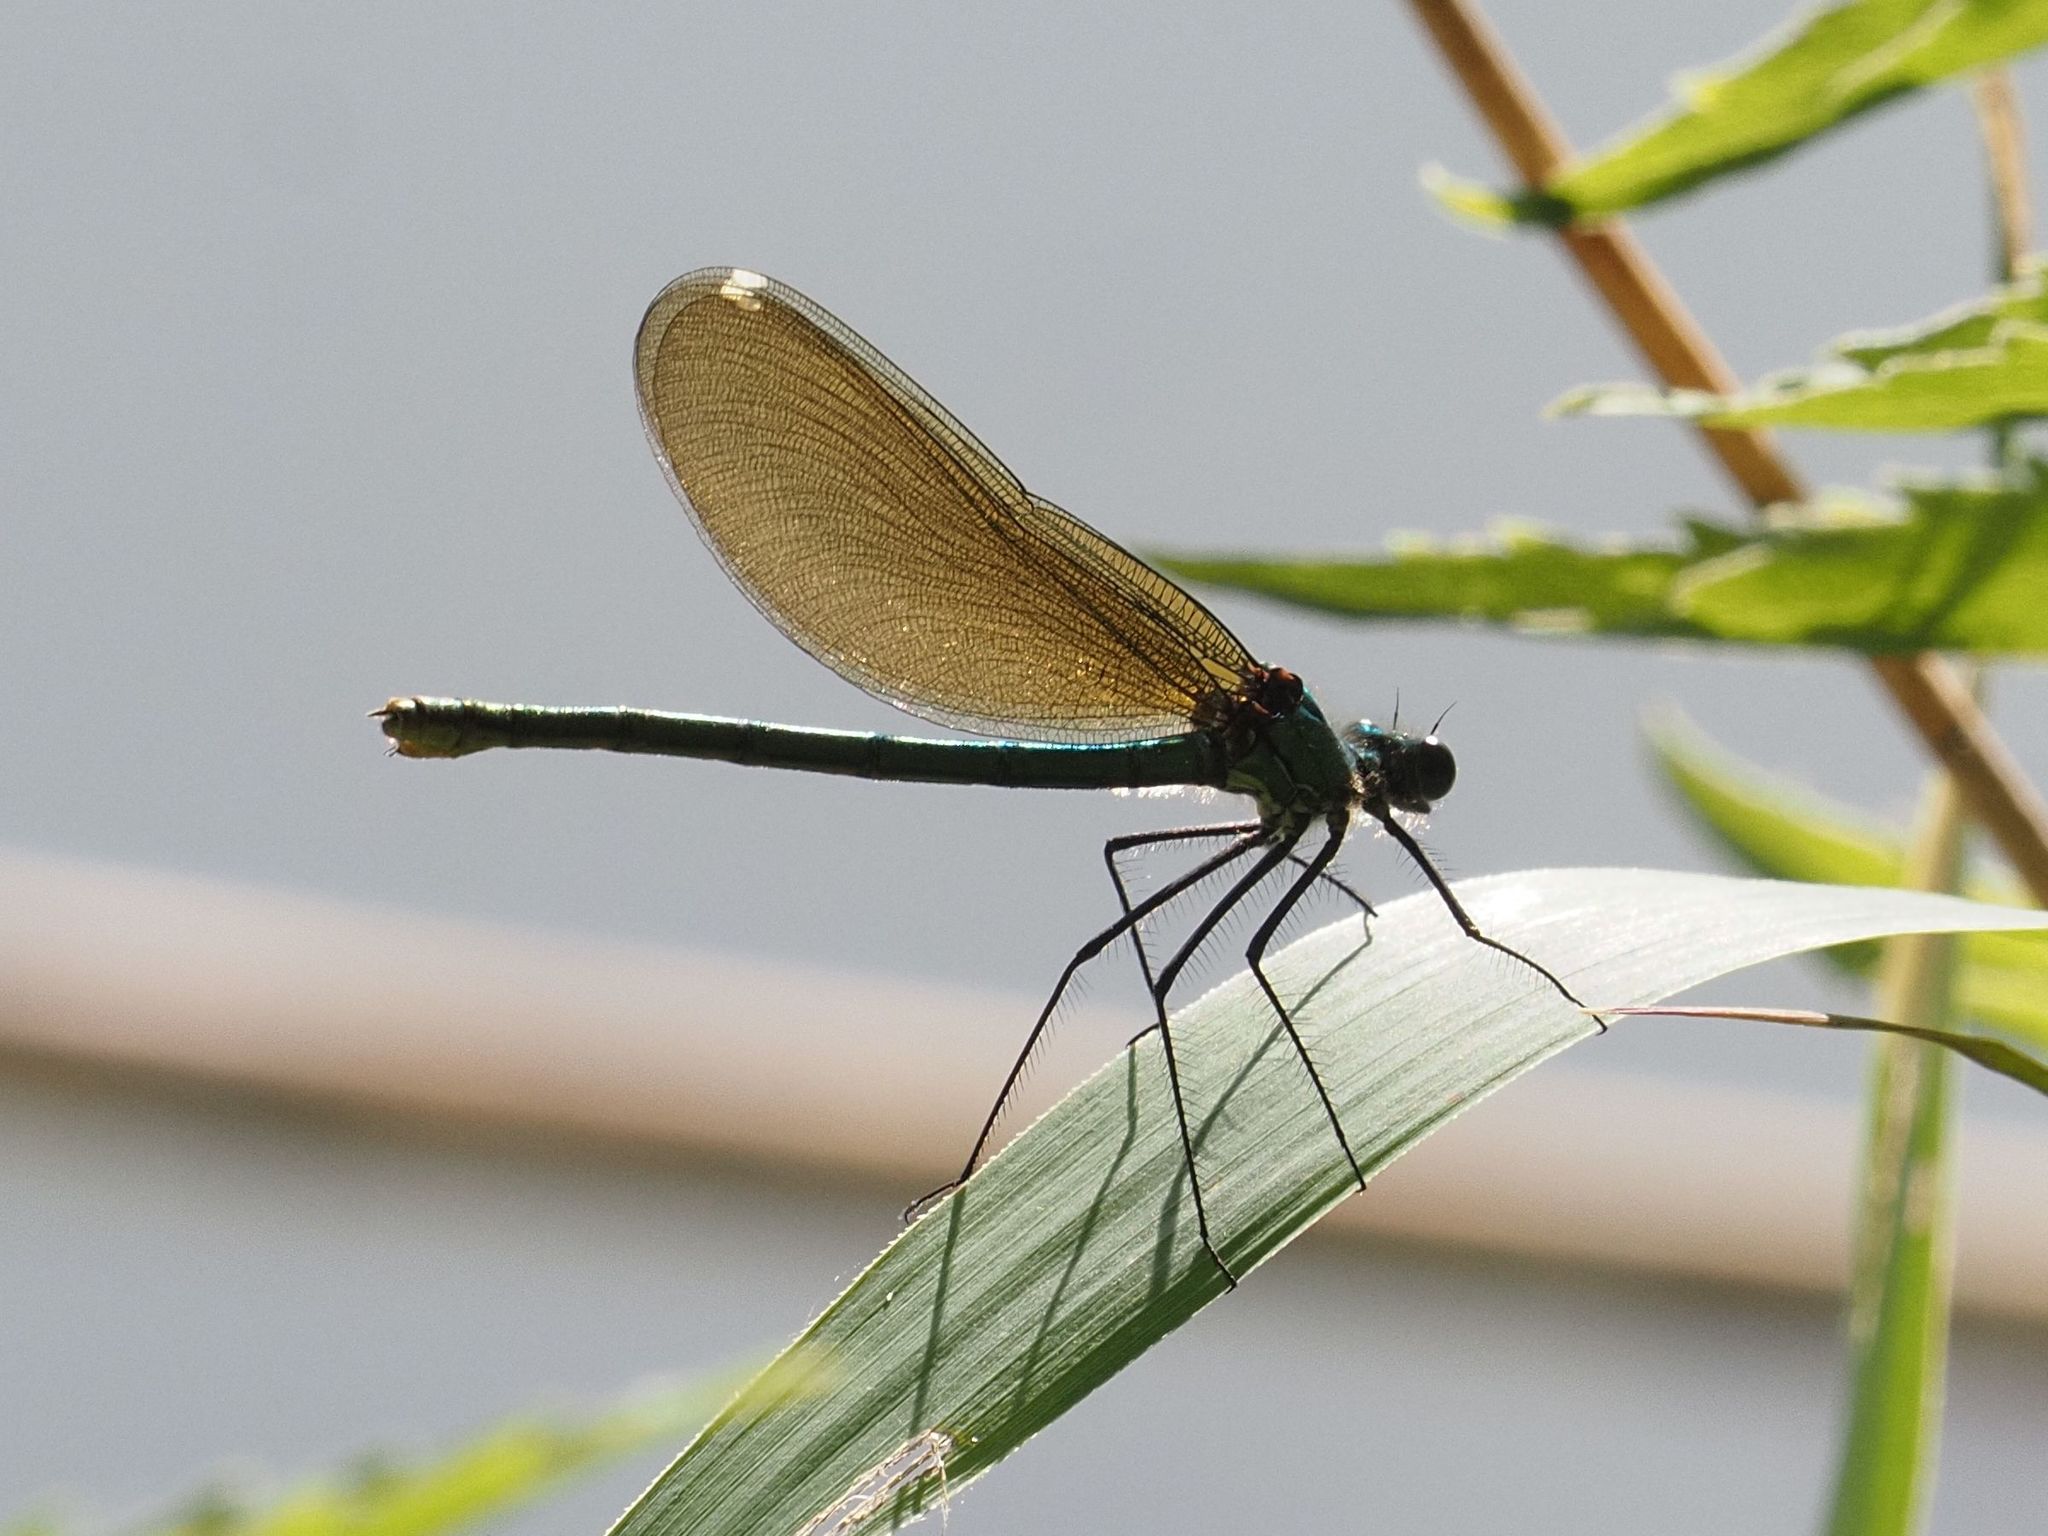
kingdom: Animalia
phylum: Arthropoda
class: Insecta
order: Odonata
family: Calopterygidae
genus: Calopteryx
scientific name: Calopteryx splendens
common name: Banded demoiselle
